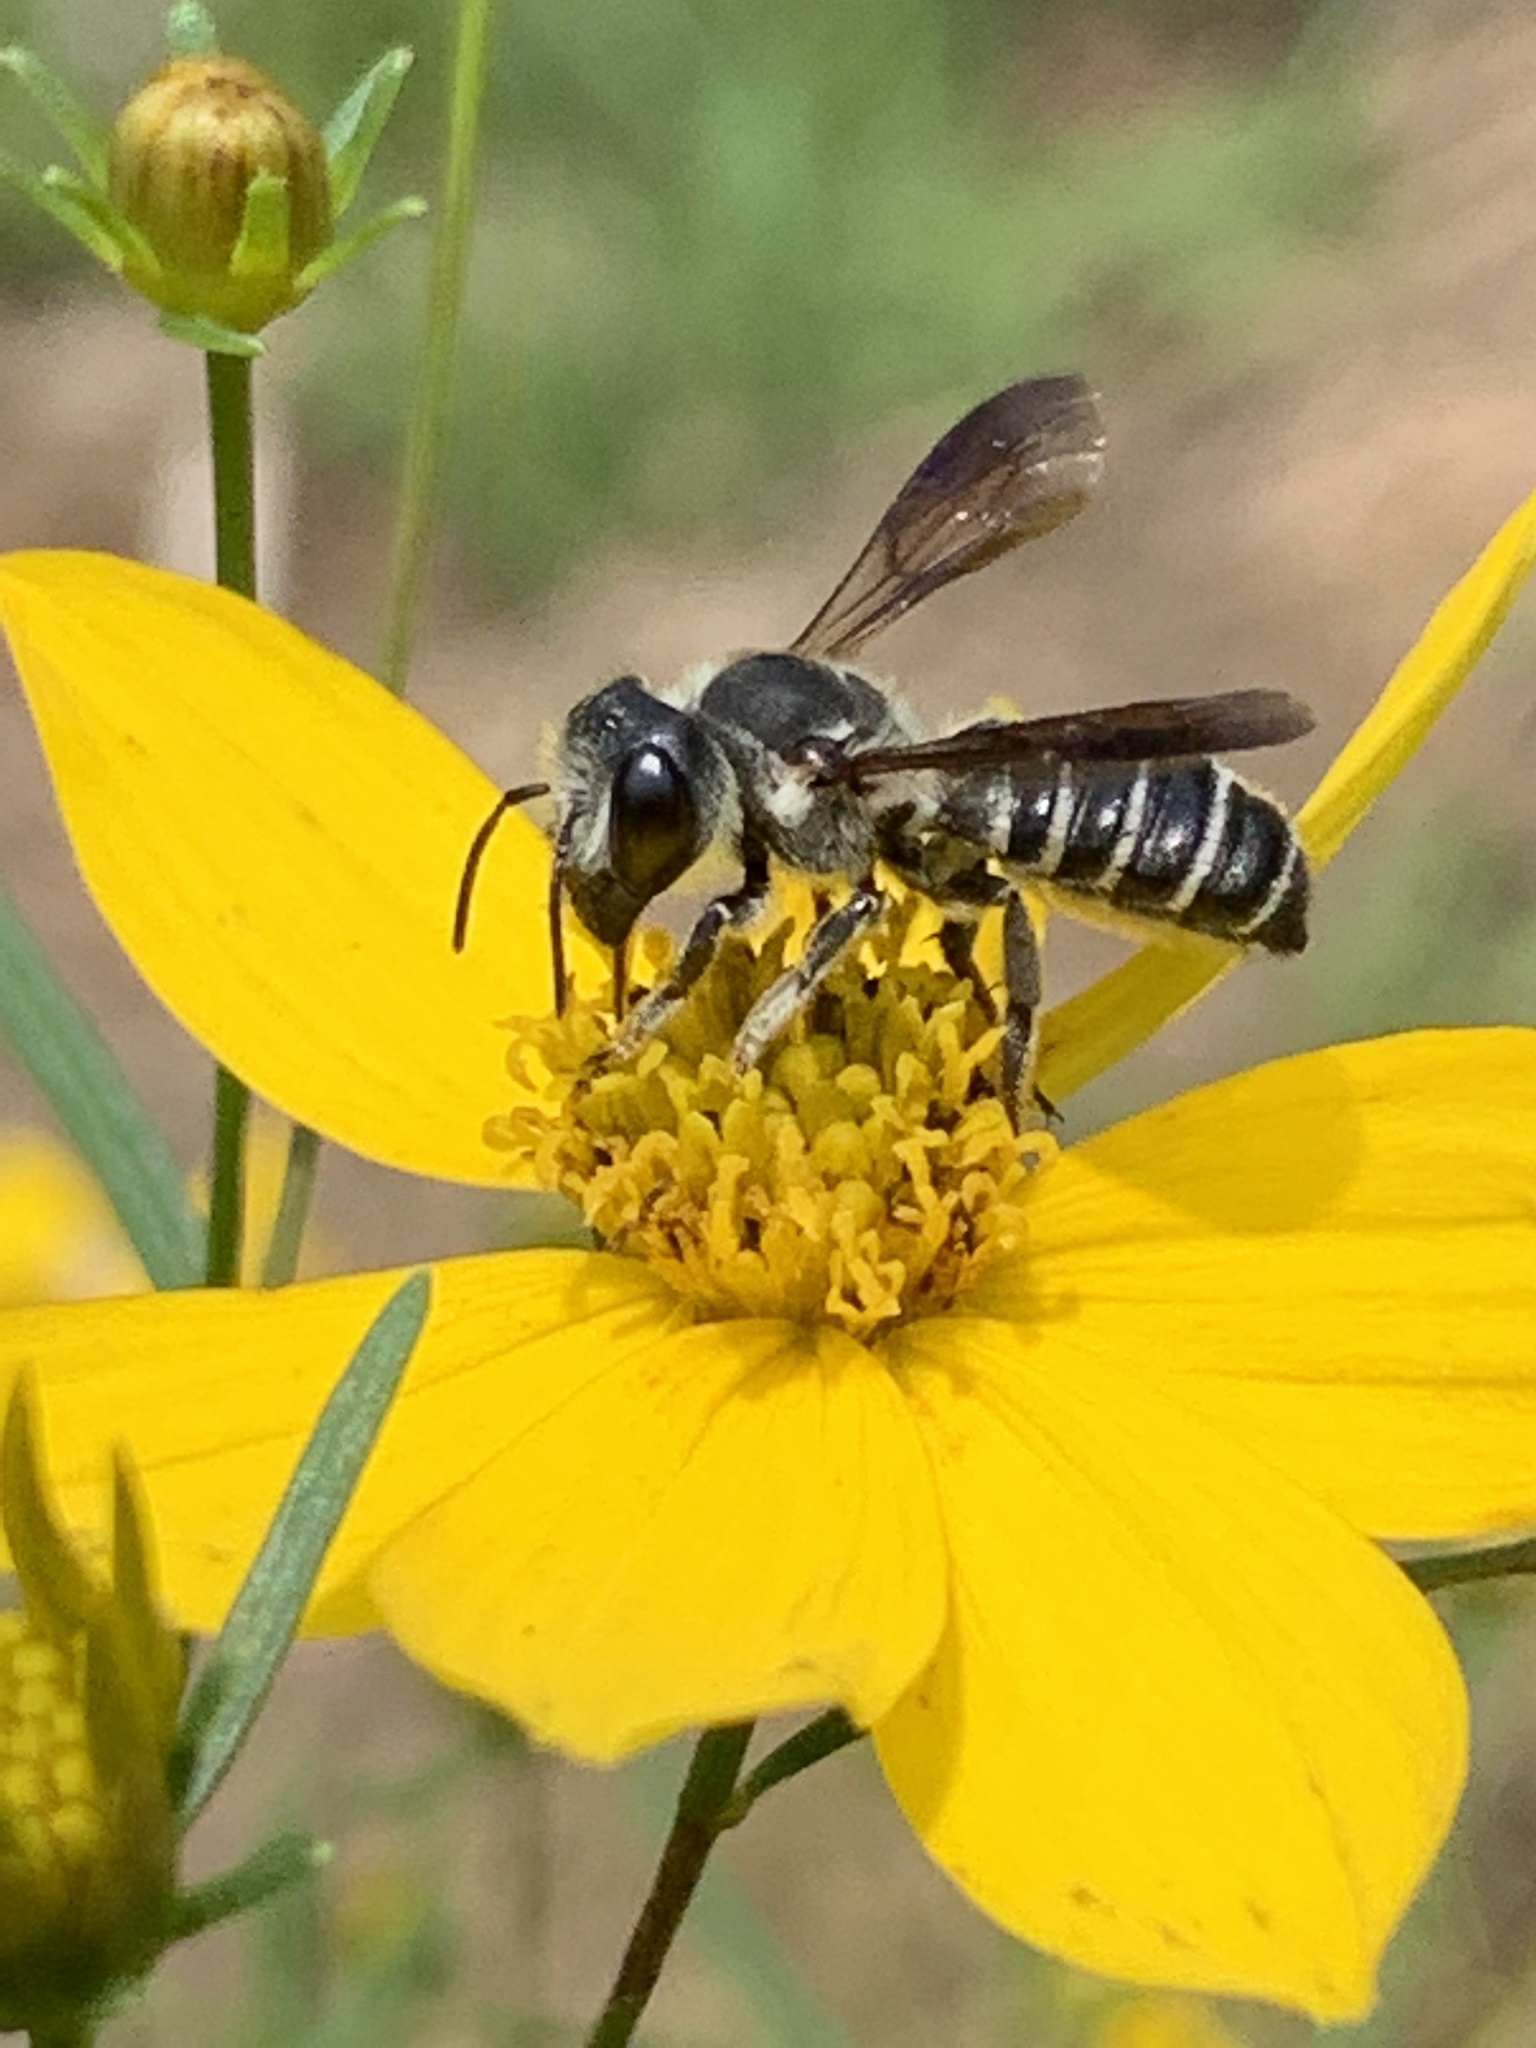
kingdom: Animalia
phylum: Arthropoda
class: Insecta
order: Hymenoptera
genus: Sayapis
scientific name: Sayapis
